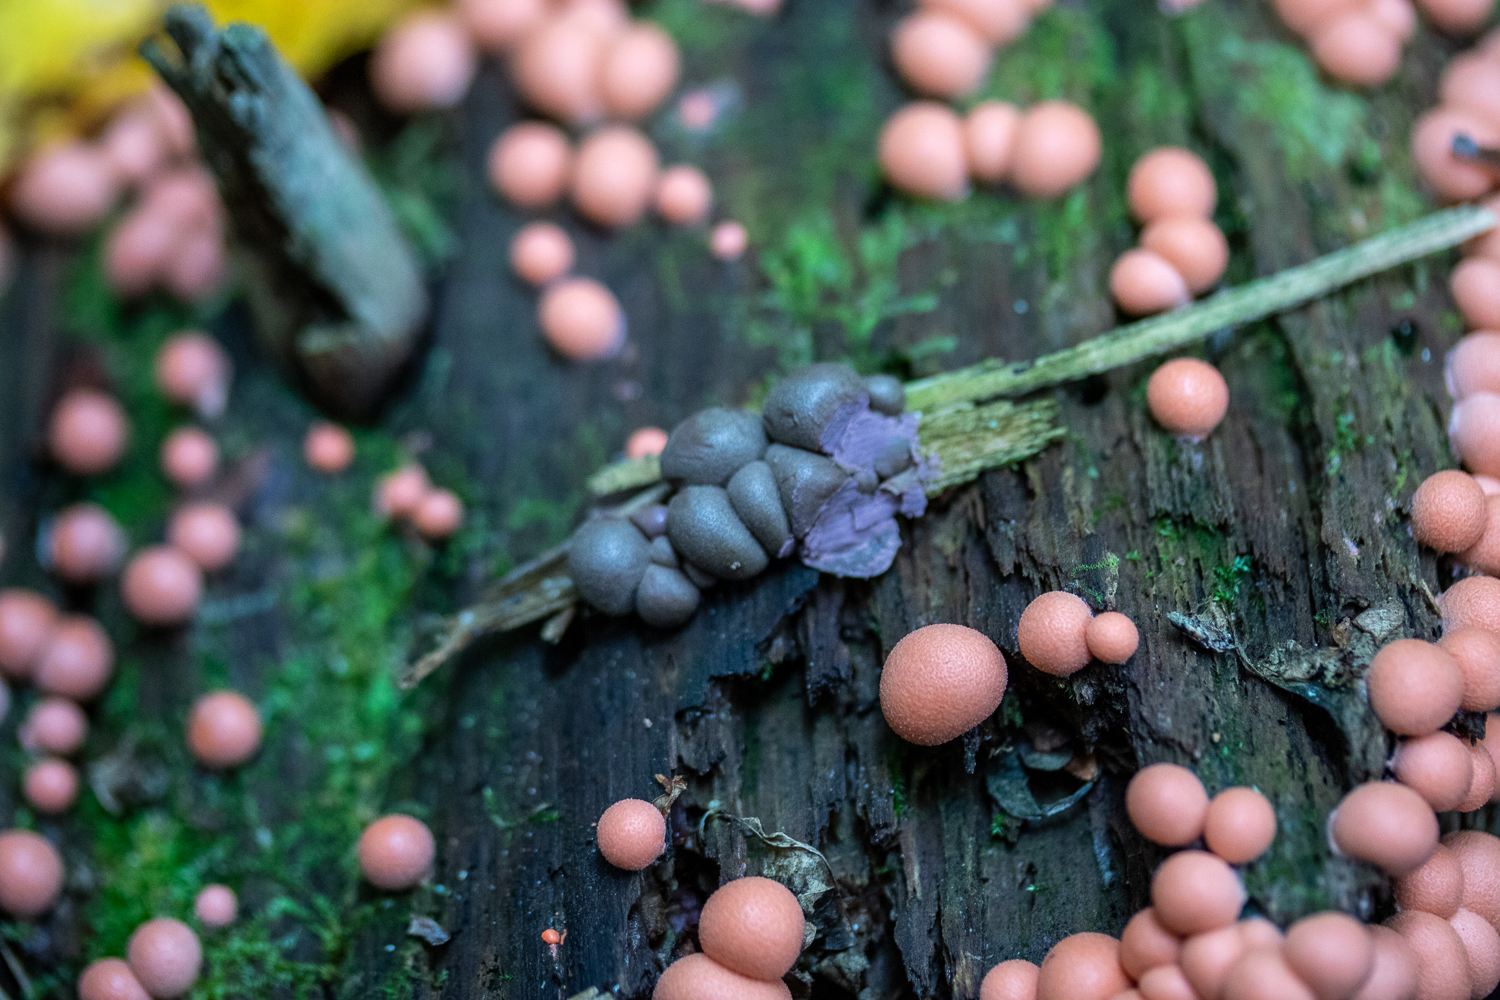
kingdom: Protozoa
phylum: Mycetozoa
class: Myxomycetes
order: Cribrariales
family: Tubiferaceae
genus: Lycogala
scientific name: Lycogala epidendrum
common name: Wolf's milk
